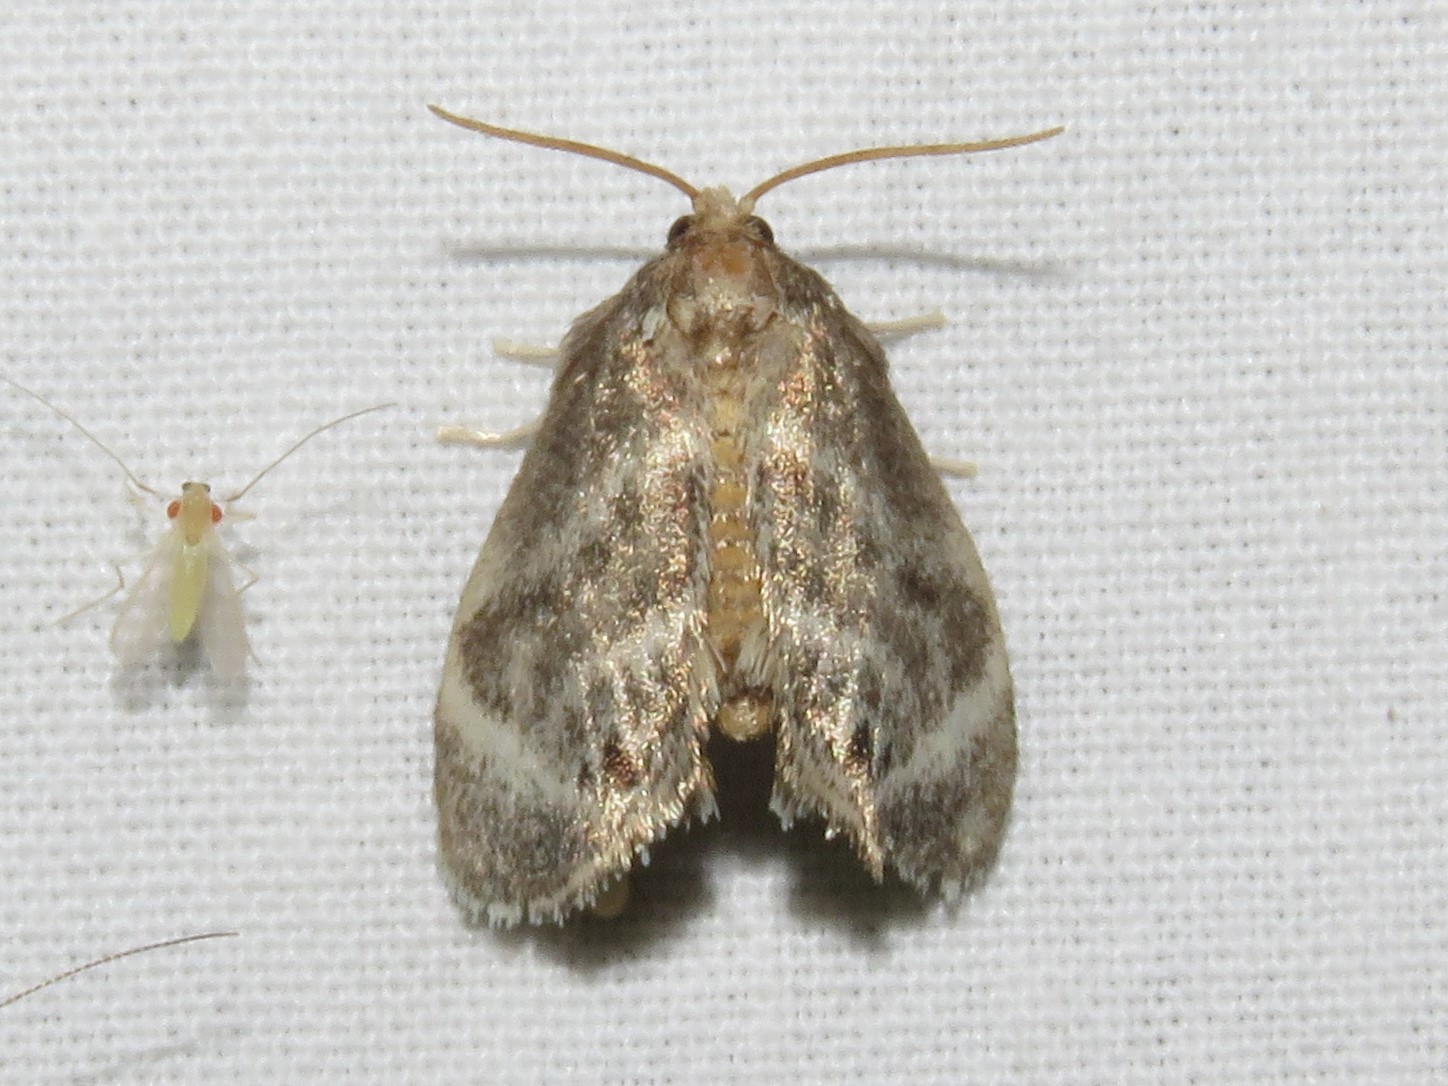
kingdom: Animalia
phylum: Arthropoda
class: Insecta
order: Lepidoptera
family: Limacodidae
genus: Packardia
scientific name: Packardia elegans
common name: Elegant tailed slug moth
